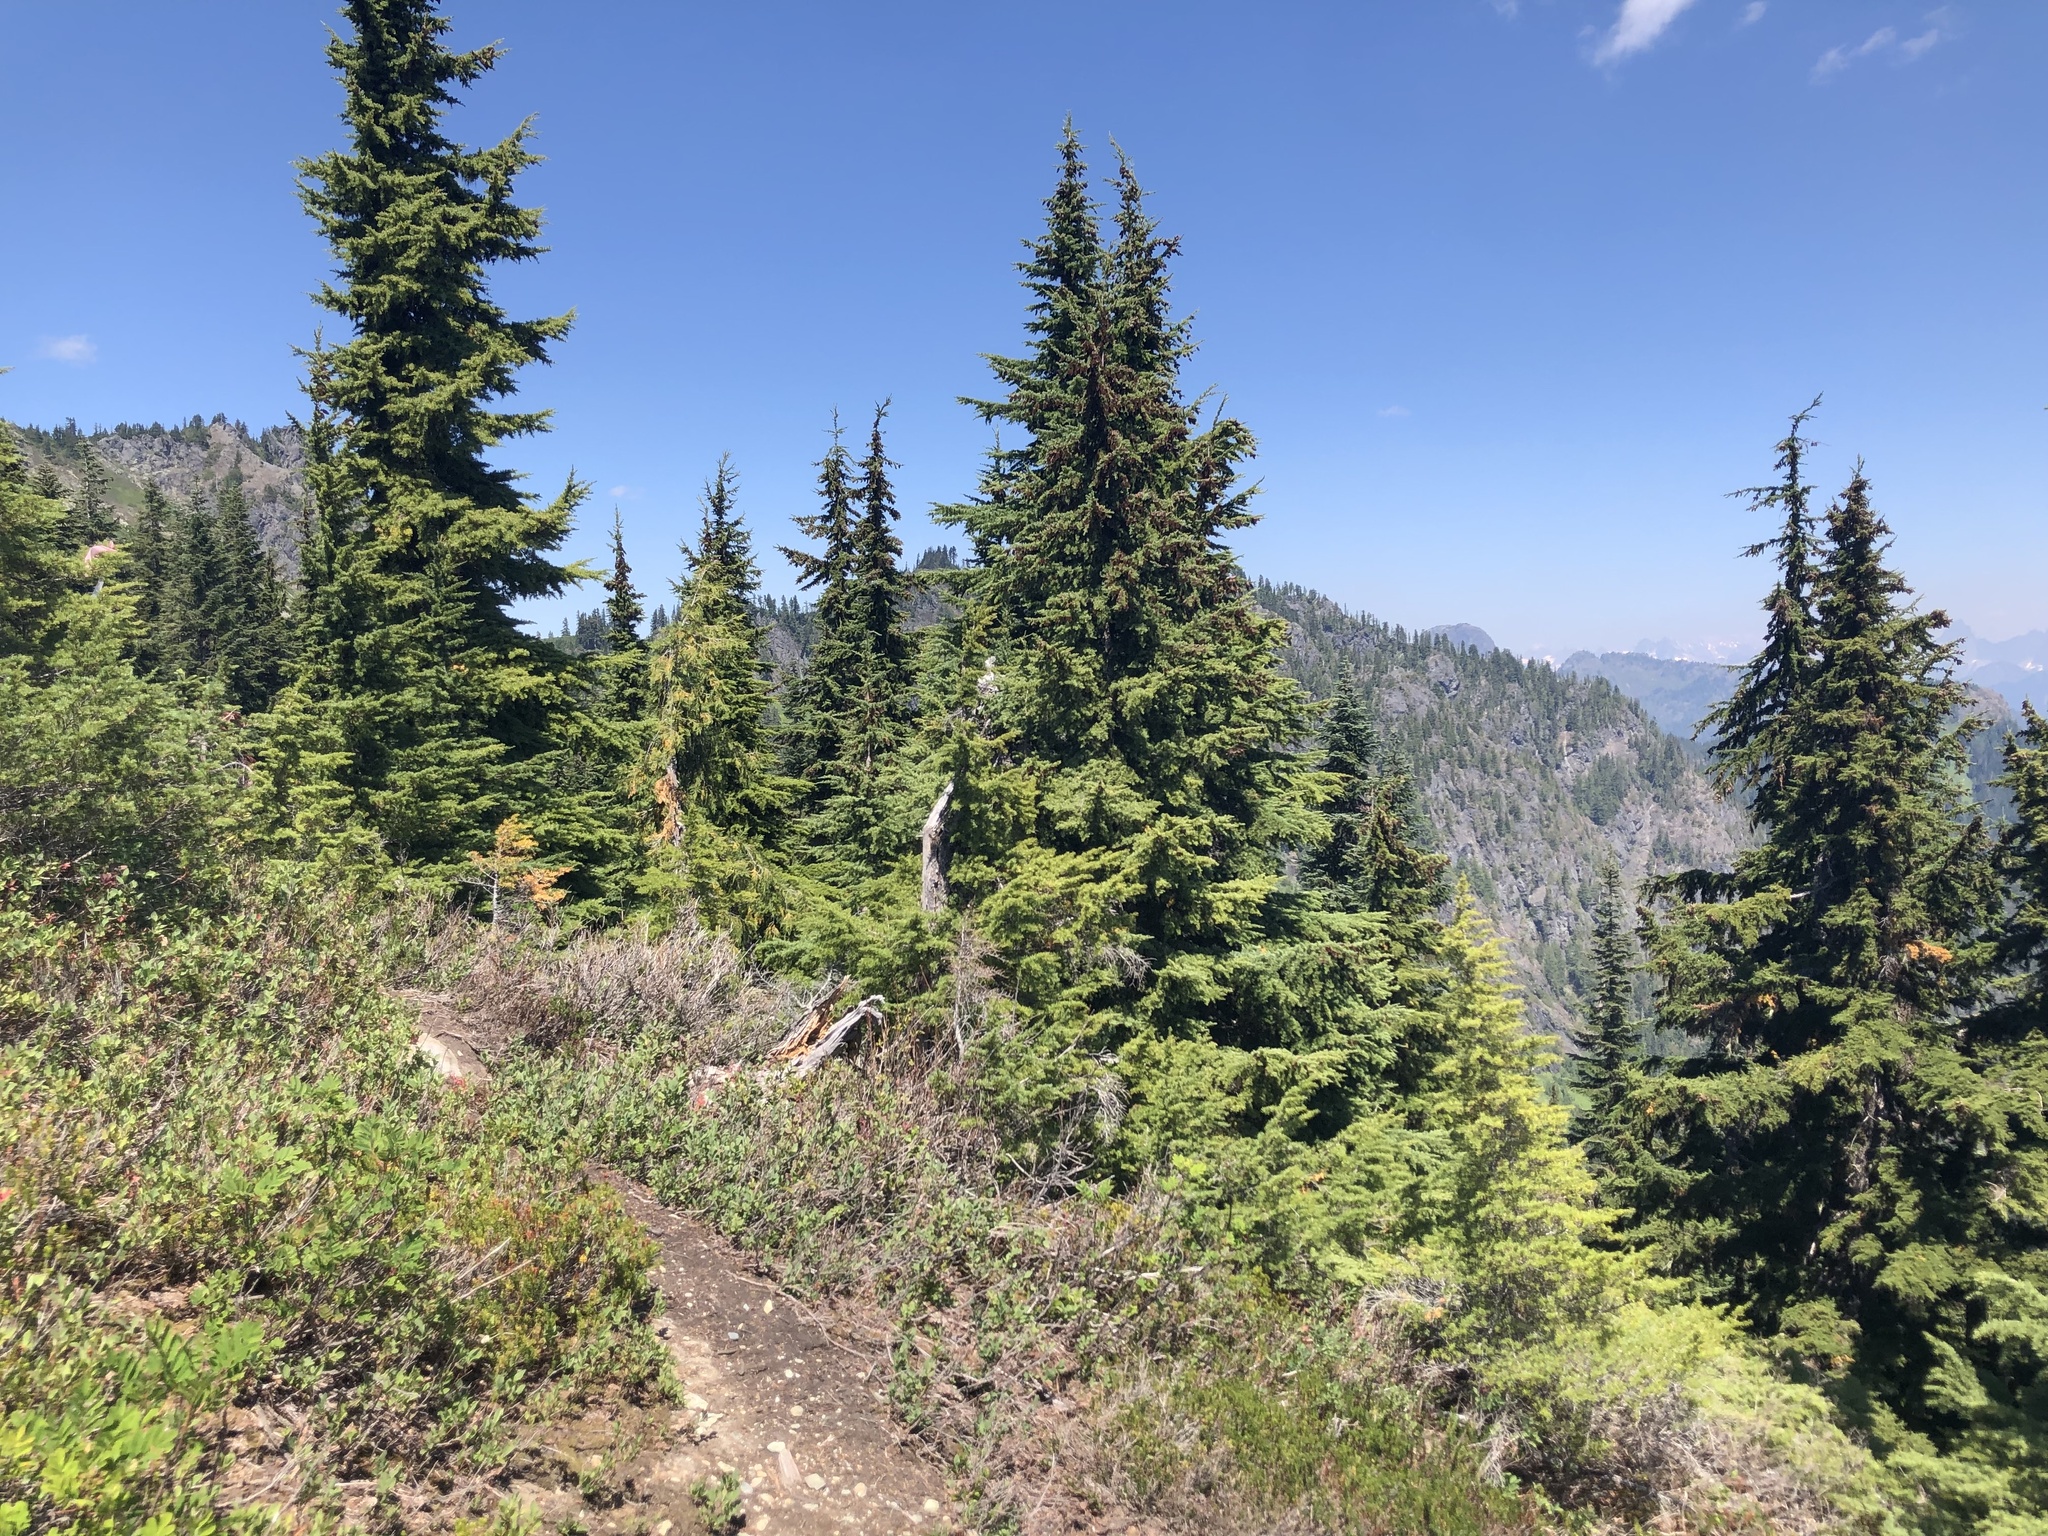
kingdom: Plantae
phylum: Tracheophyta
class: Pinopsida
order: Pinales
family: Pinaceae
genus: Tsuga
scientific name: Tsuga mertensiana
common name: Mountain hemlock
